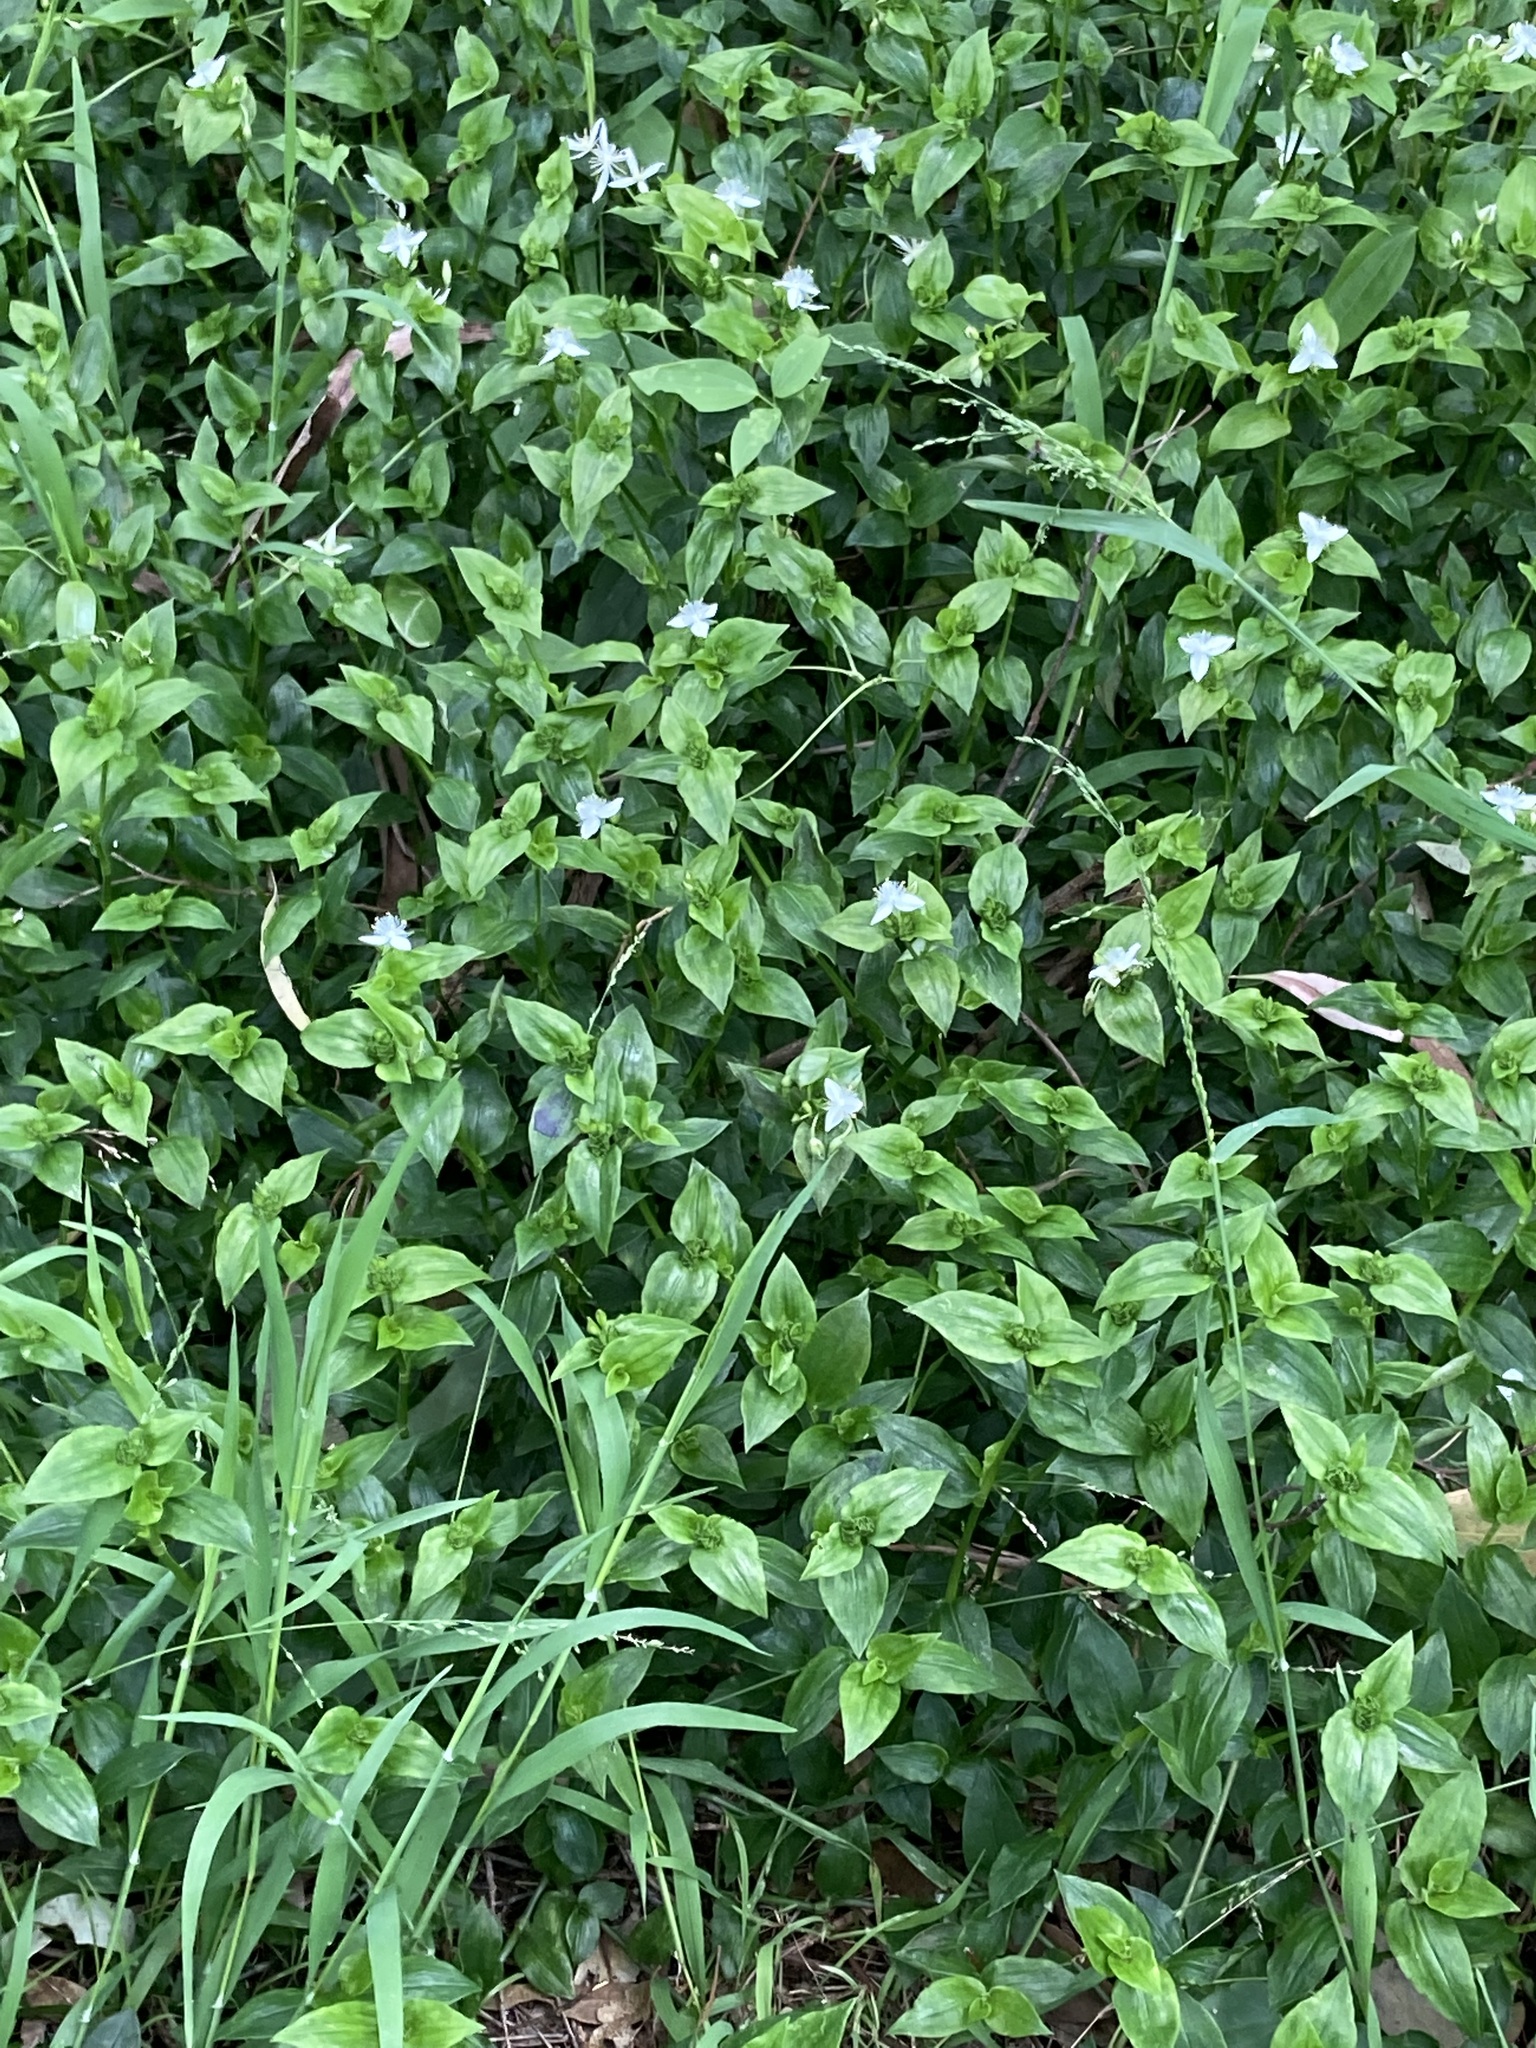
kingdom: Plantae
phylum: Tracheophyta
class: Liliopsida
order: Commelinales
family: Commelinaceae
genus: Tradescantia
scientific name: Tradescantia fluminensis
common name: Wandering-jew
